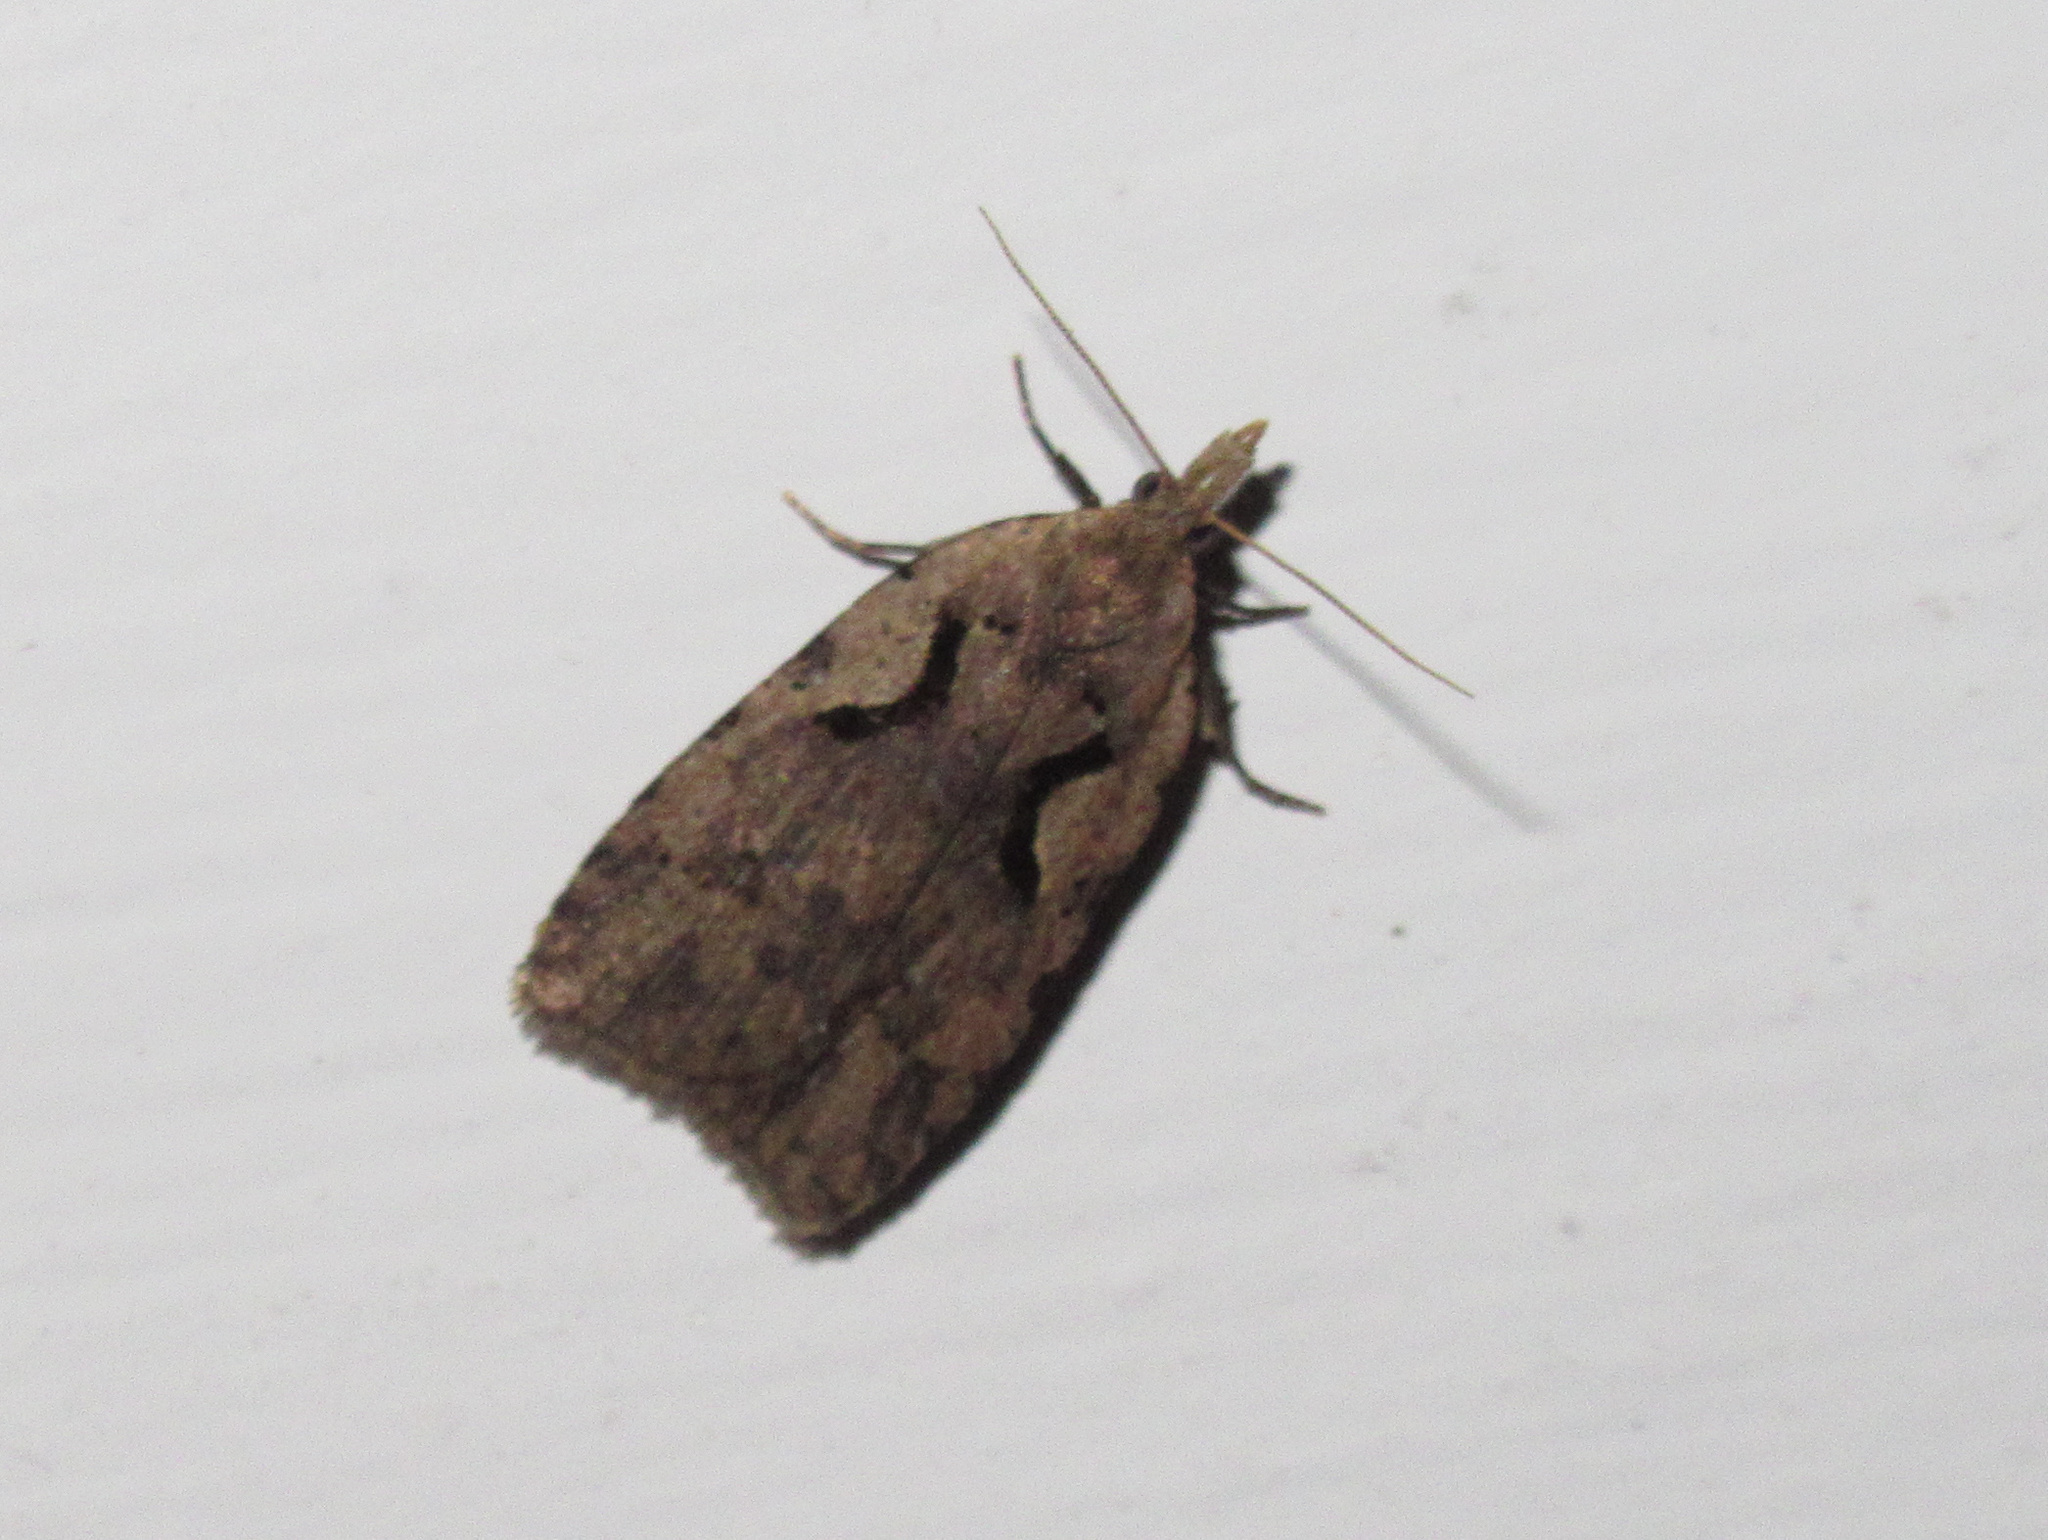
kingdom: Animalia
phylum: Arthropoda
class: Insecta
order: Lepidoptera
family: Tortricidae
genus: Cnephasia
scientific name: Cnephasia jactatana
